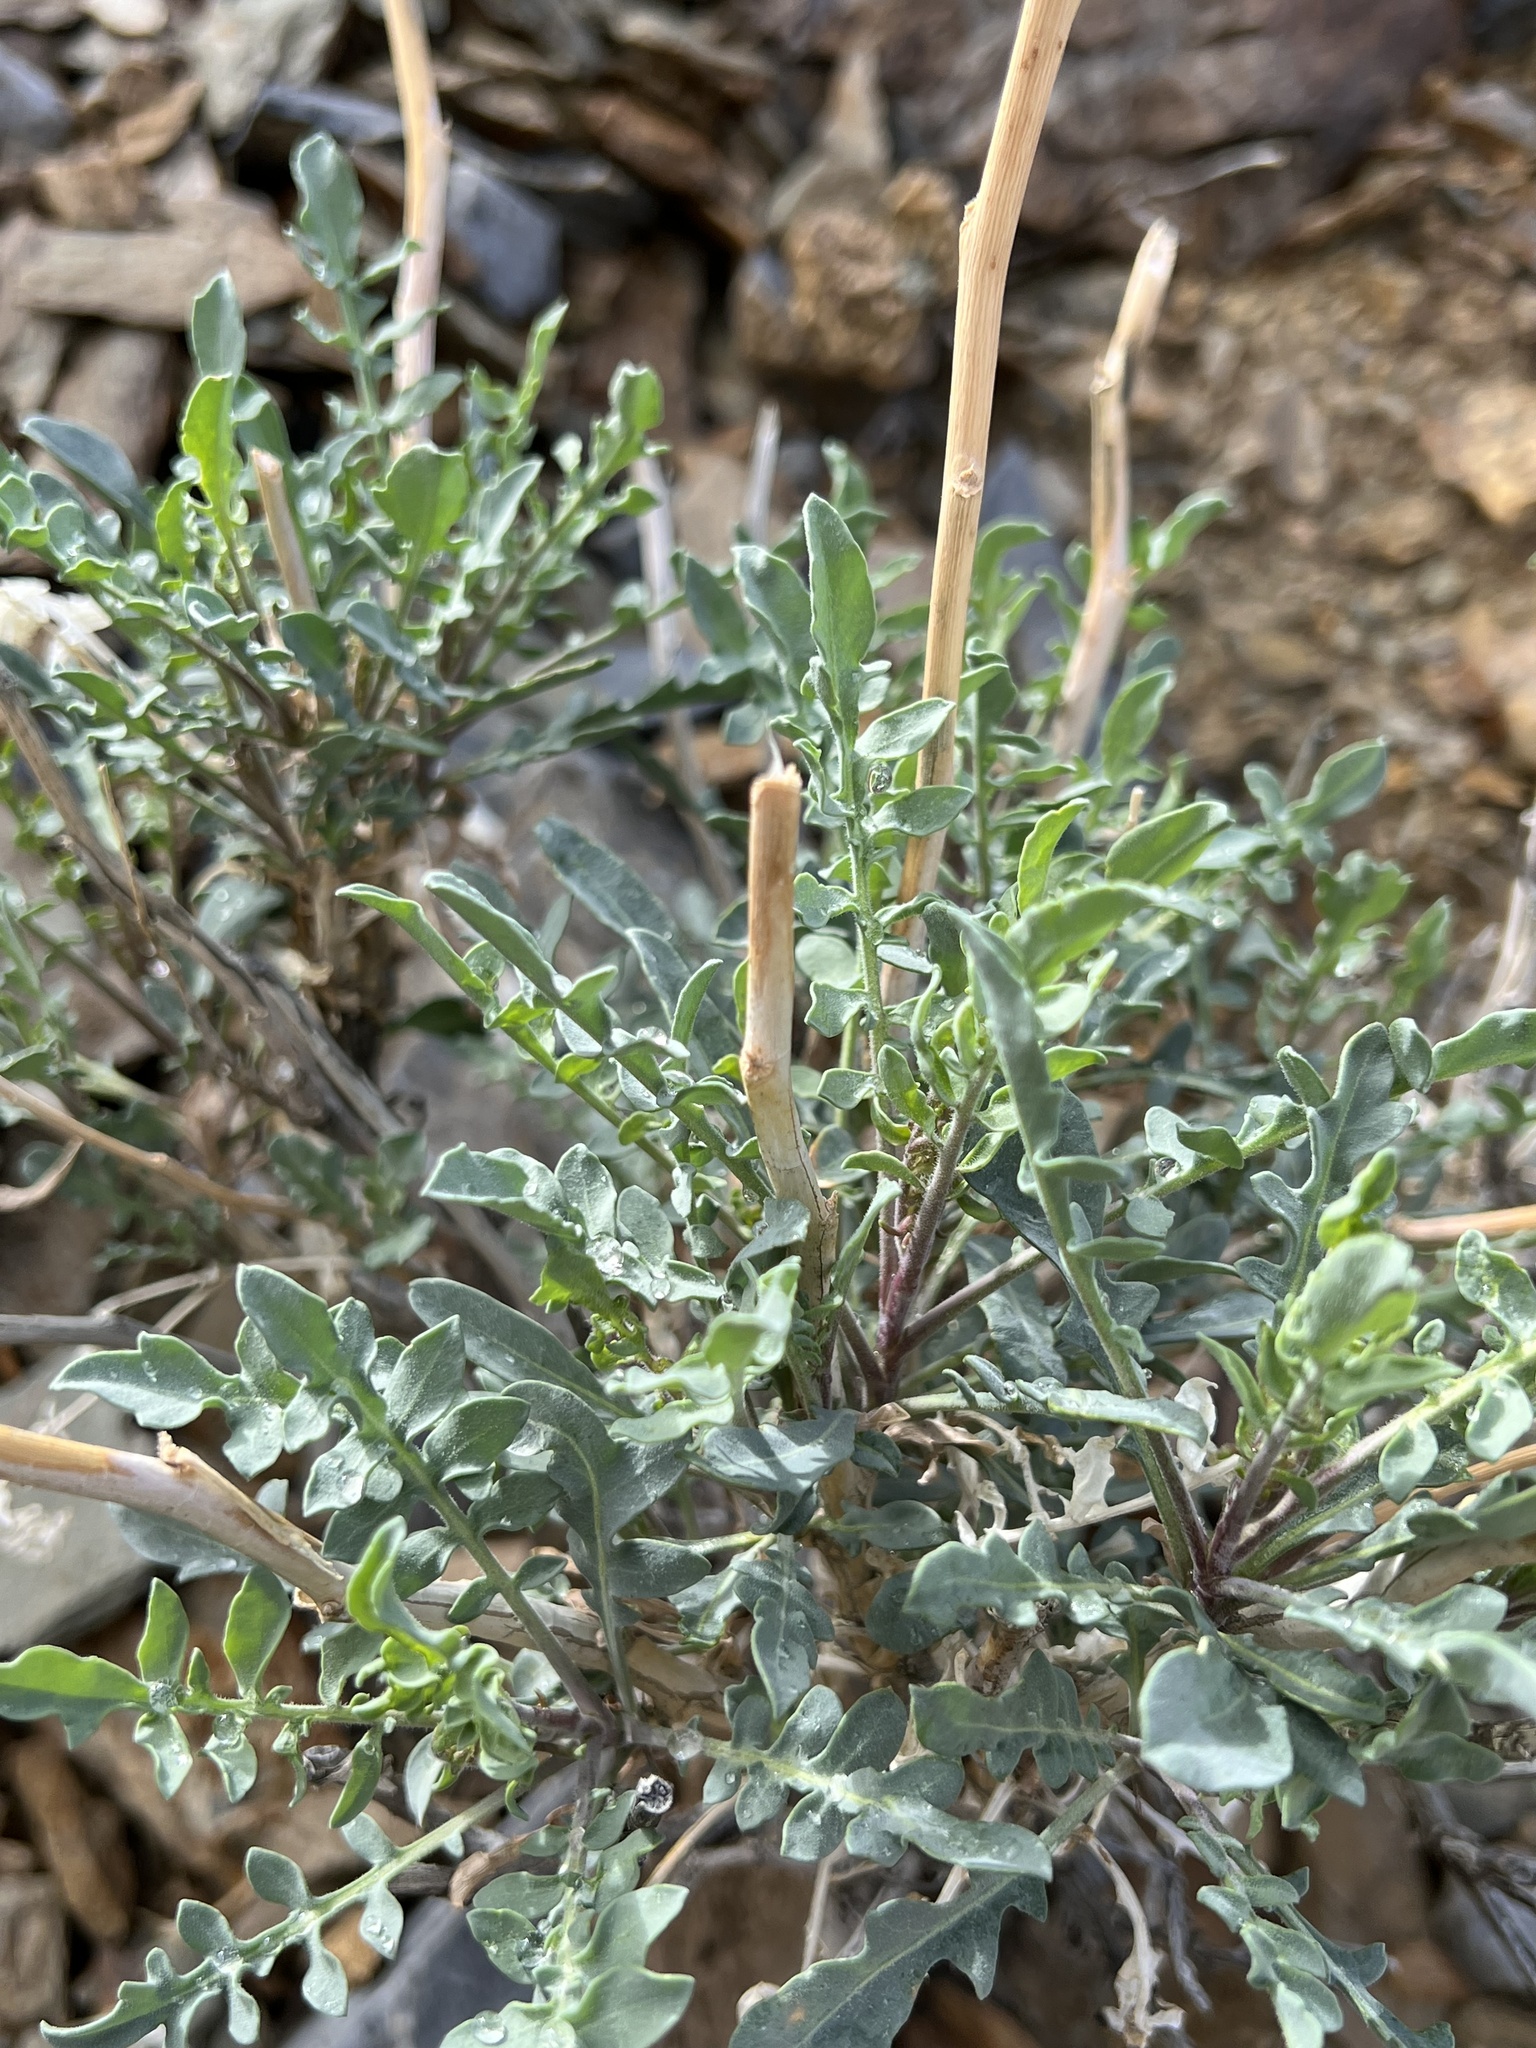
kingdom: Plantae
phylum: Tracheophyta
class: Magnoliopsida
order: Brassicales
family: Brassicaceae
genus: Stanleya
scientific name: Stanleya pinnata
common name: Prince's-plume
